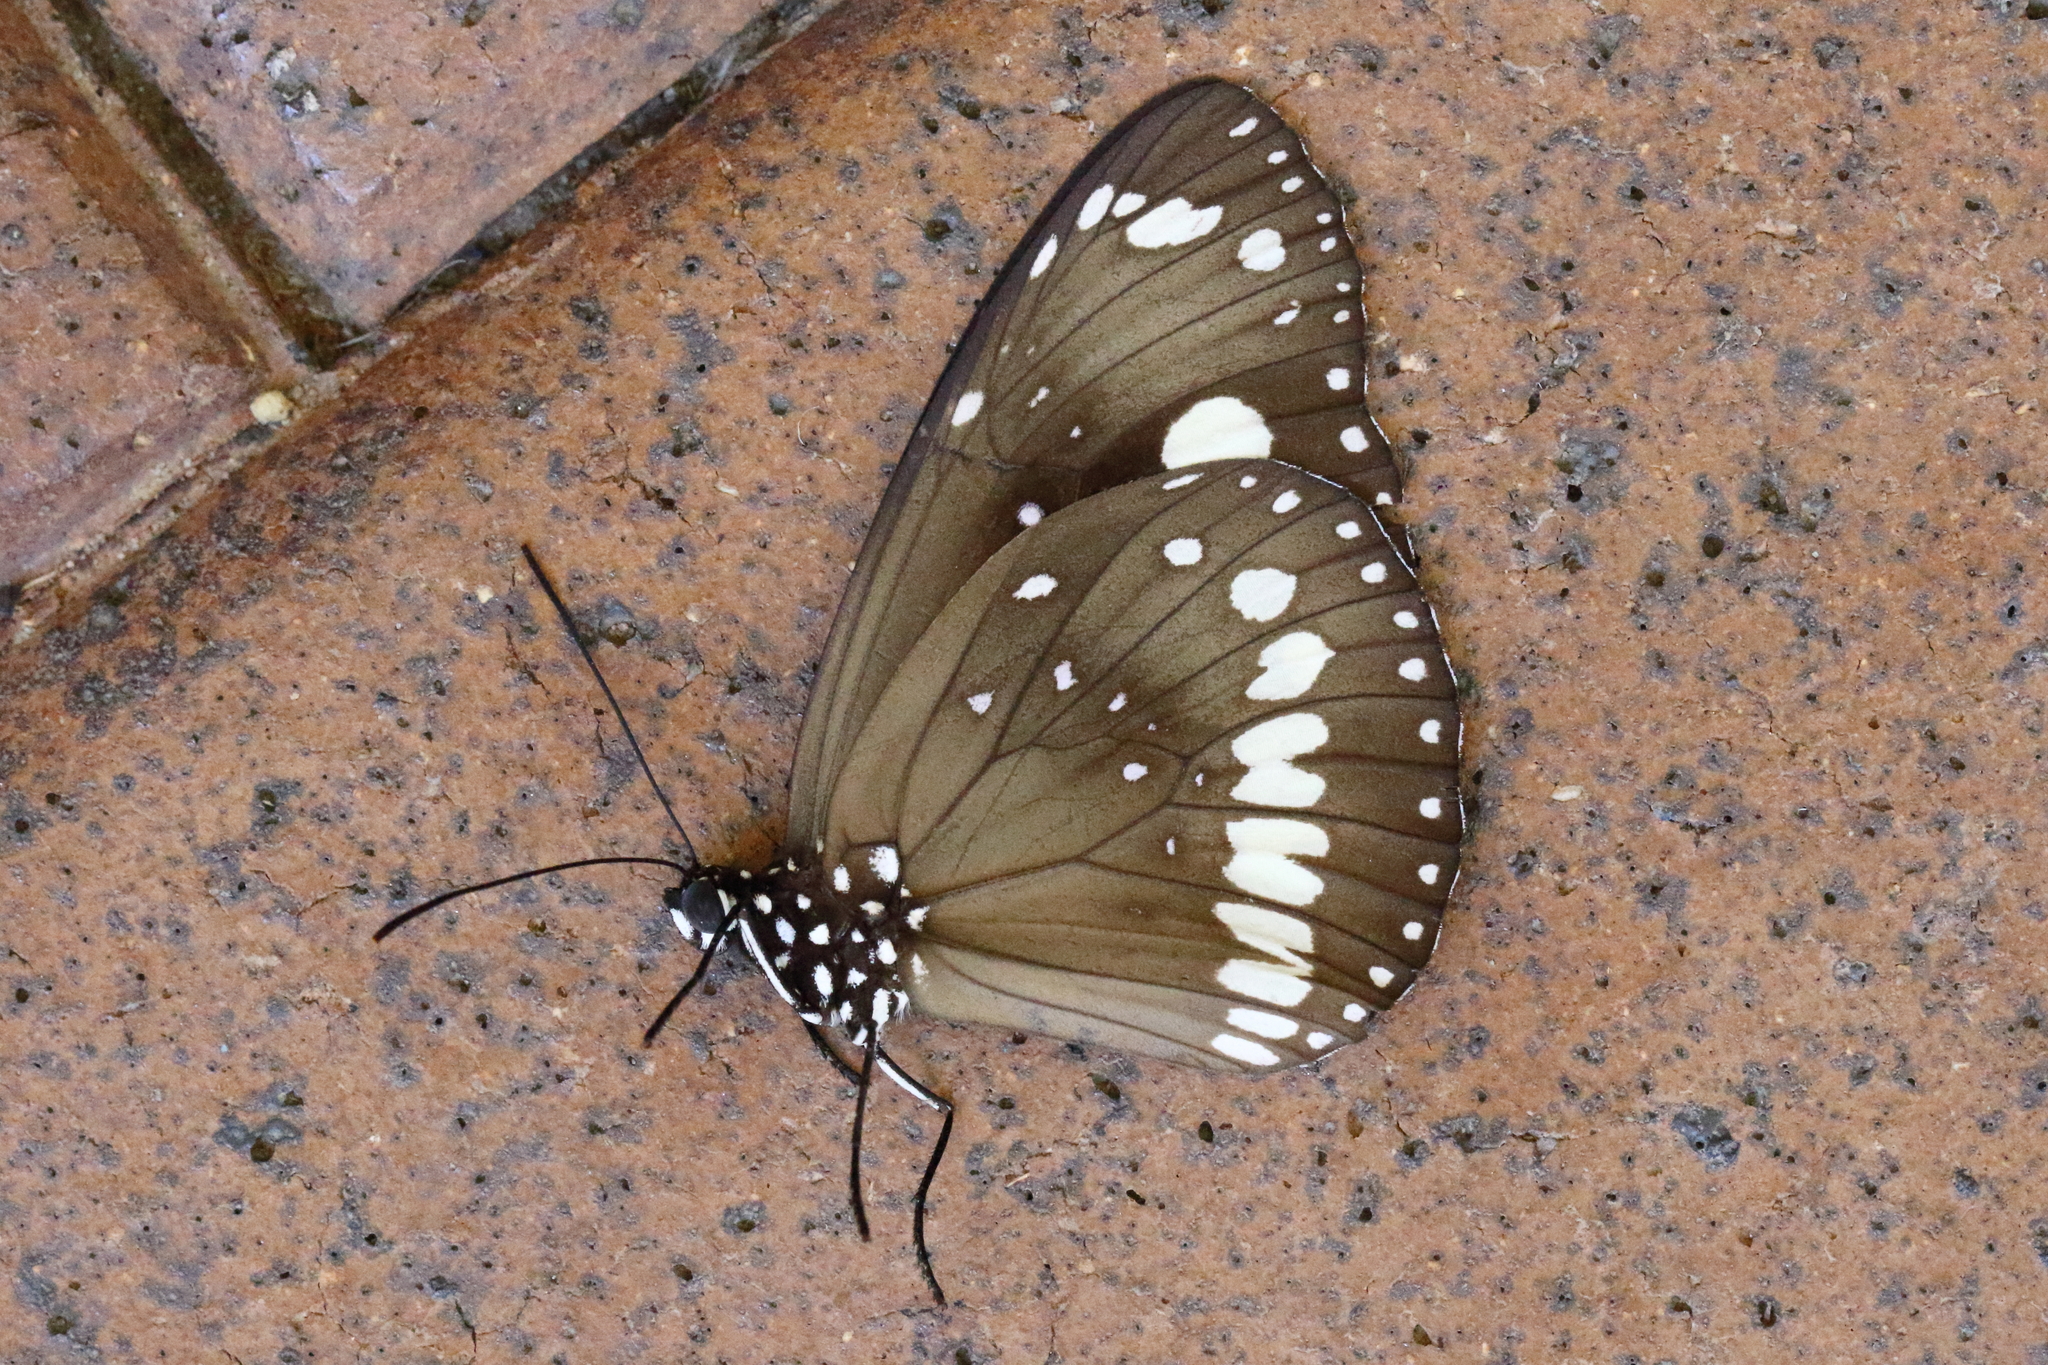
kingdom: Animalia
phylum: Arthropoda
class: Insecta
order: Lepidoptera
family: Nymphalidae
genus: Euploea
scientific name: Euploea core
